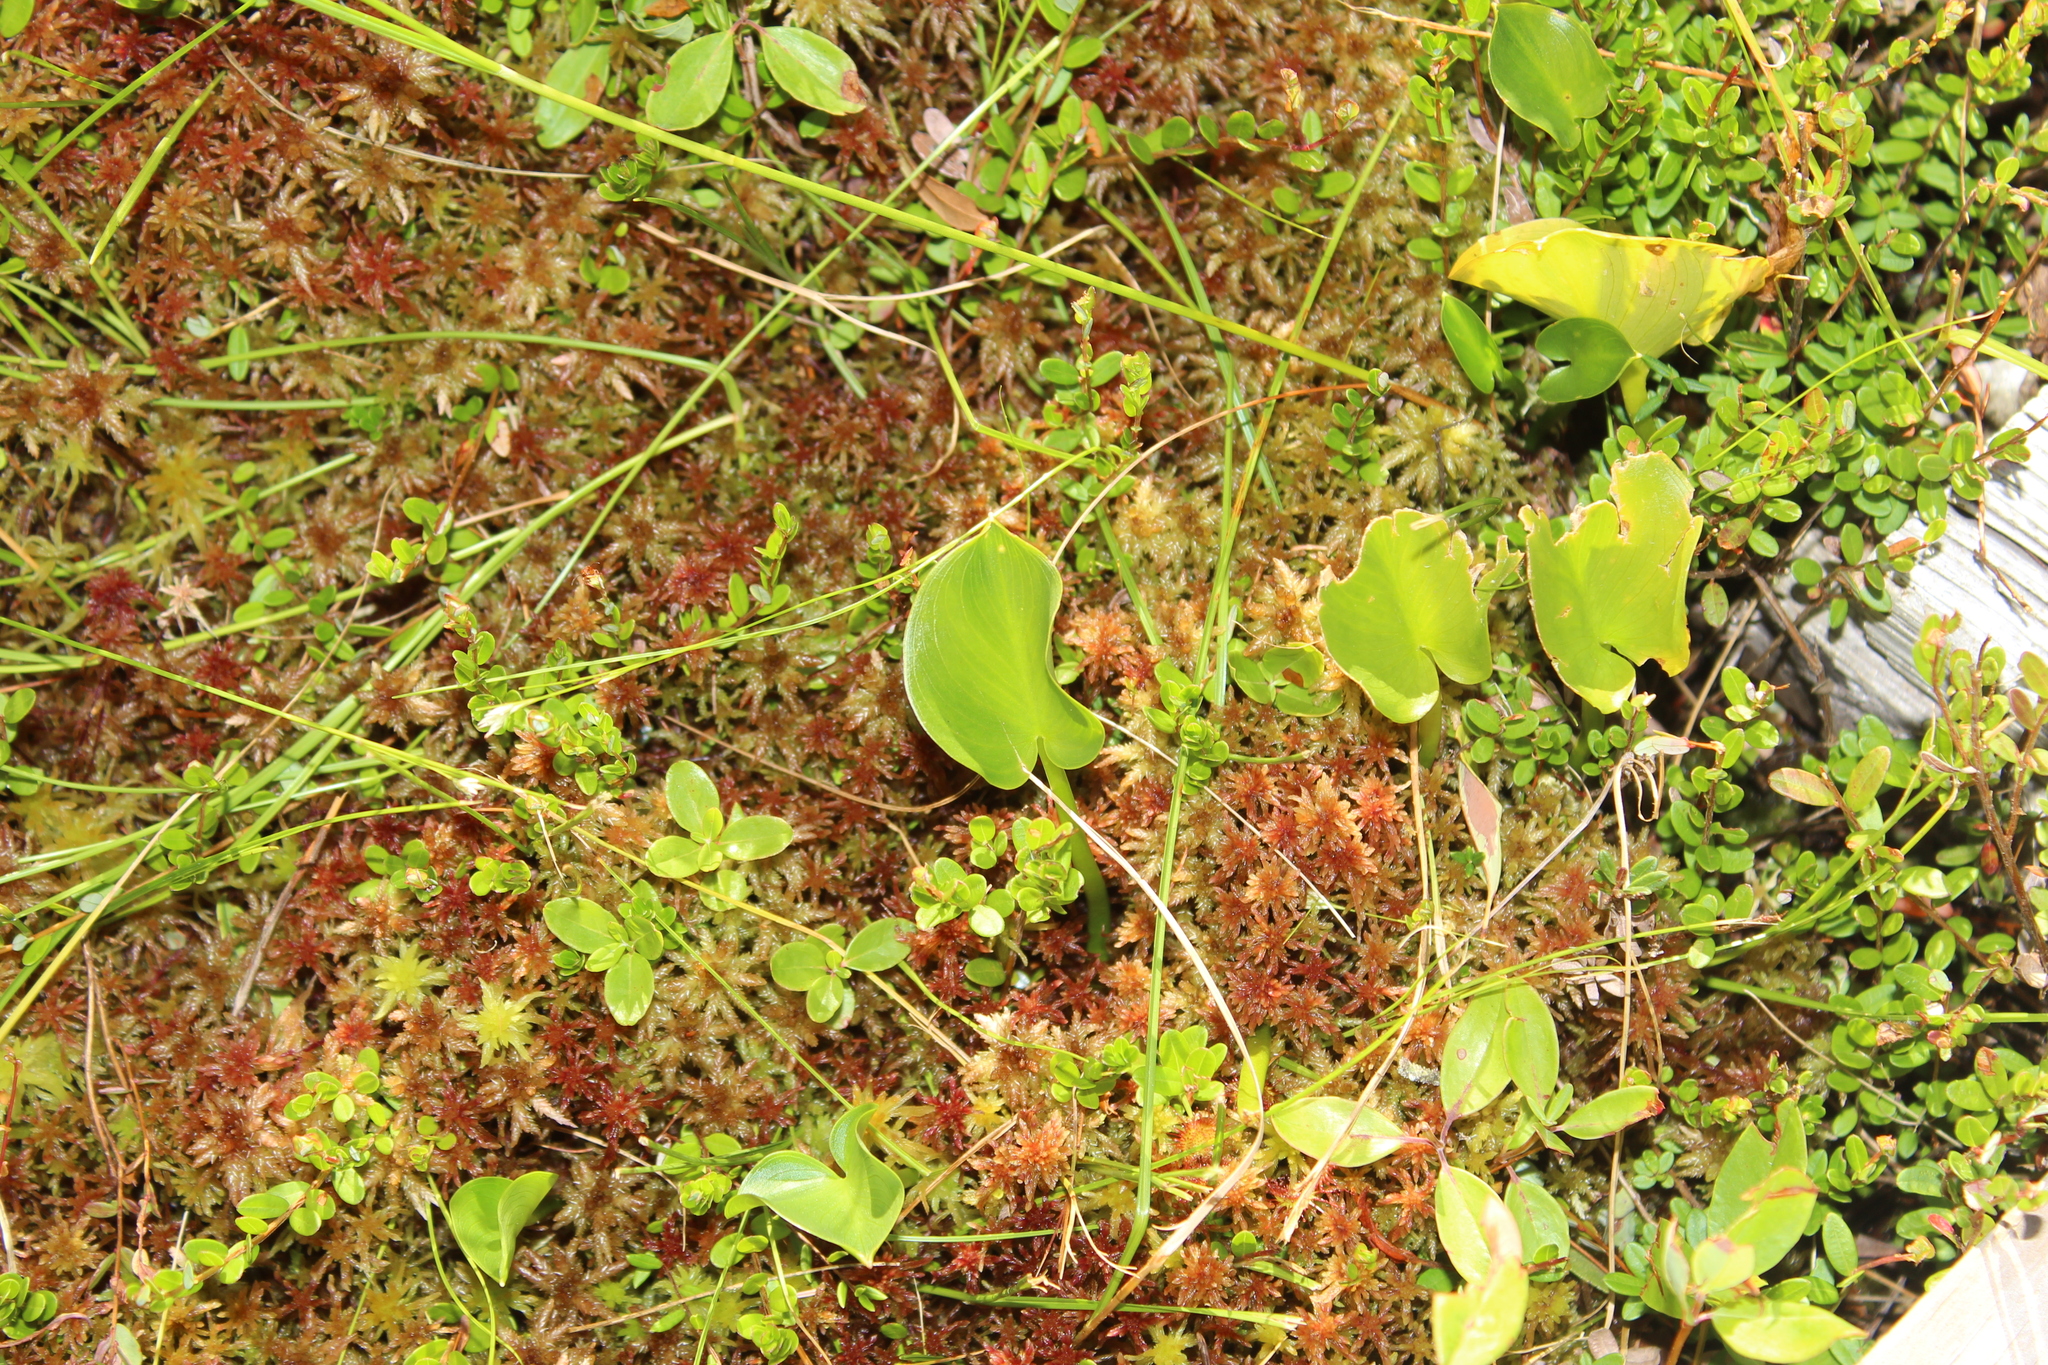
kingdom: Plantae
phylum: Tracheophyta
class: Liliopsida
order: Alismatales
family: Araceae
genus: Calla
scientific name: Calla palustris
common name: Bog arum
